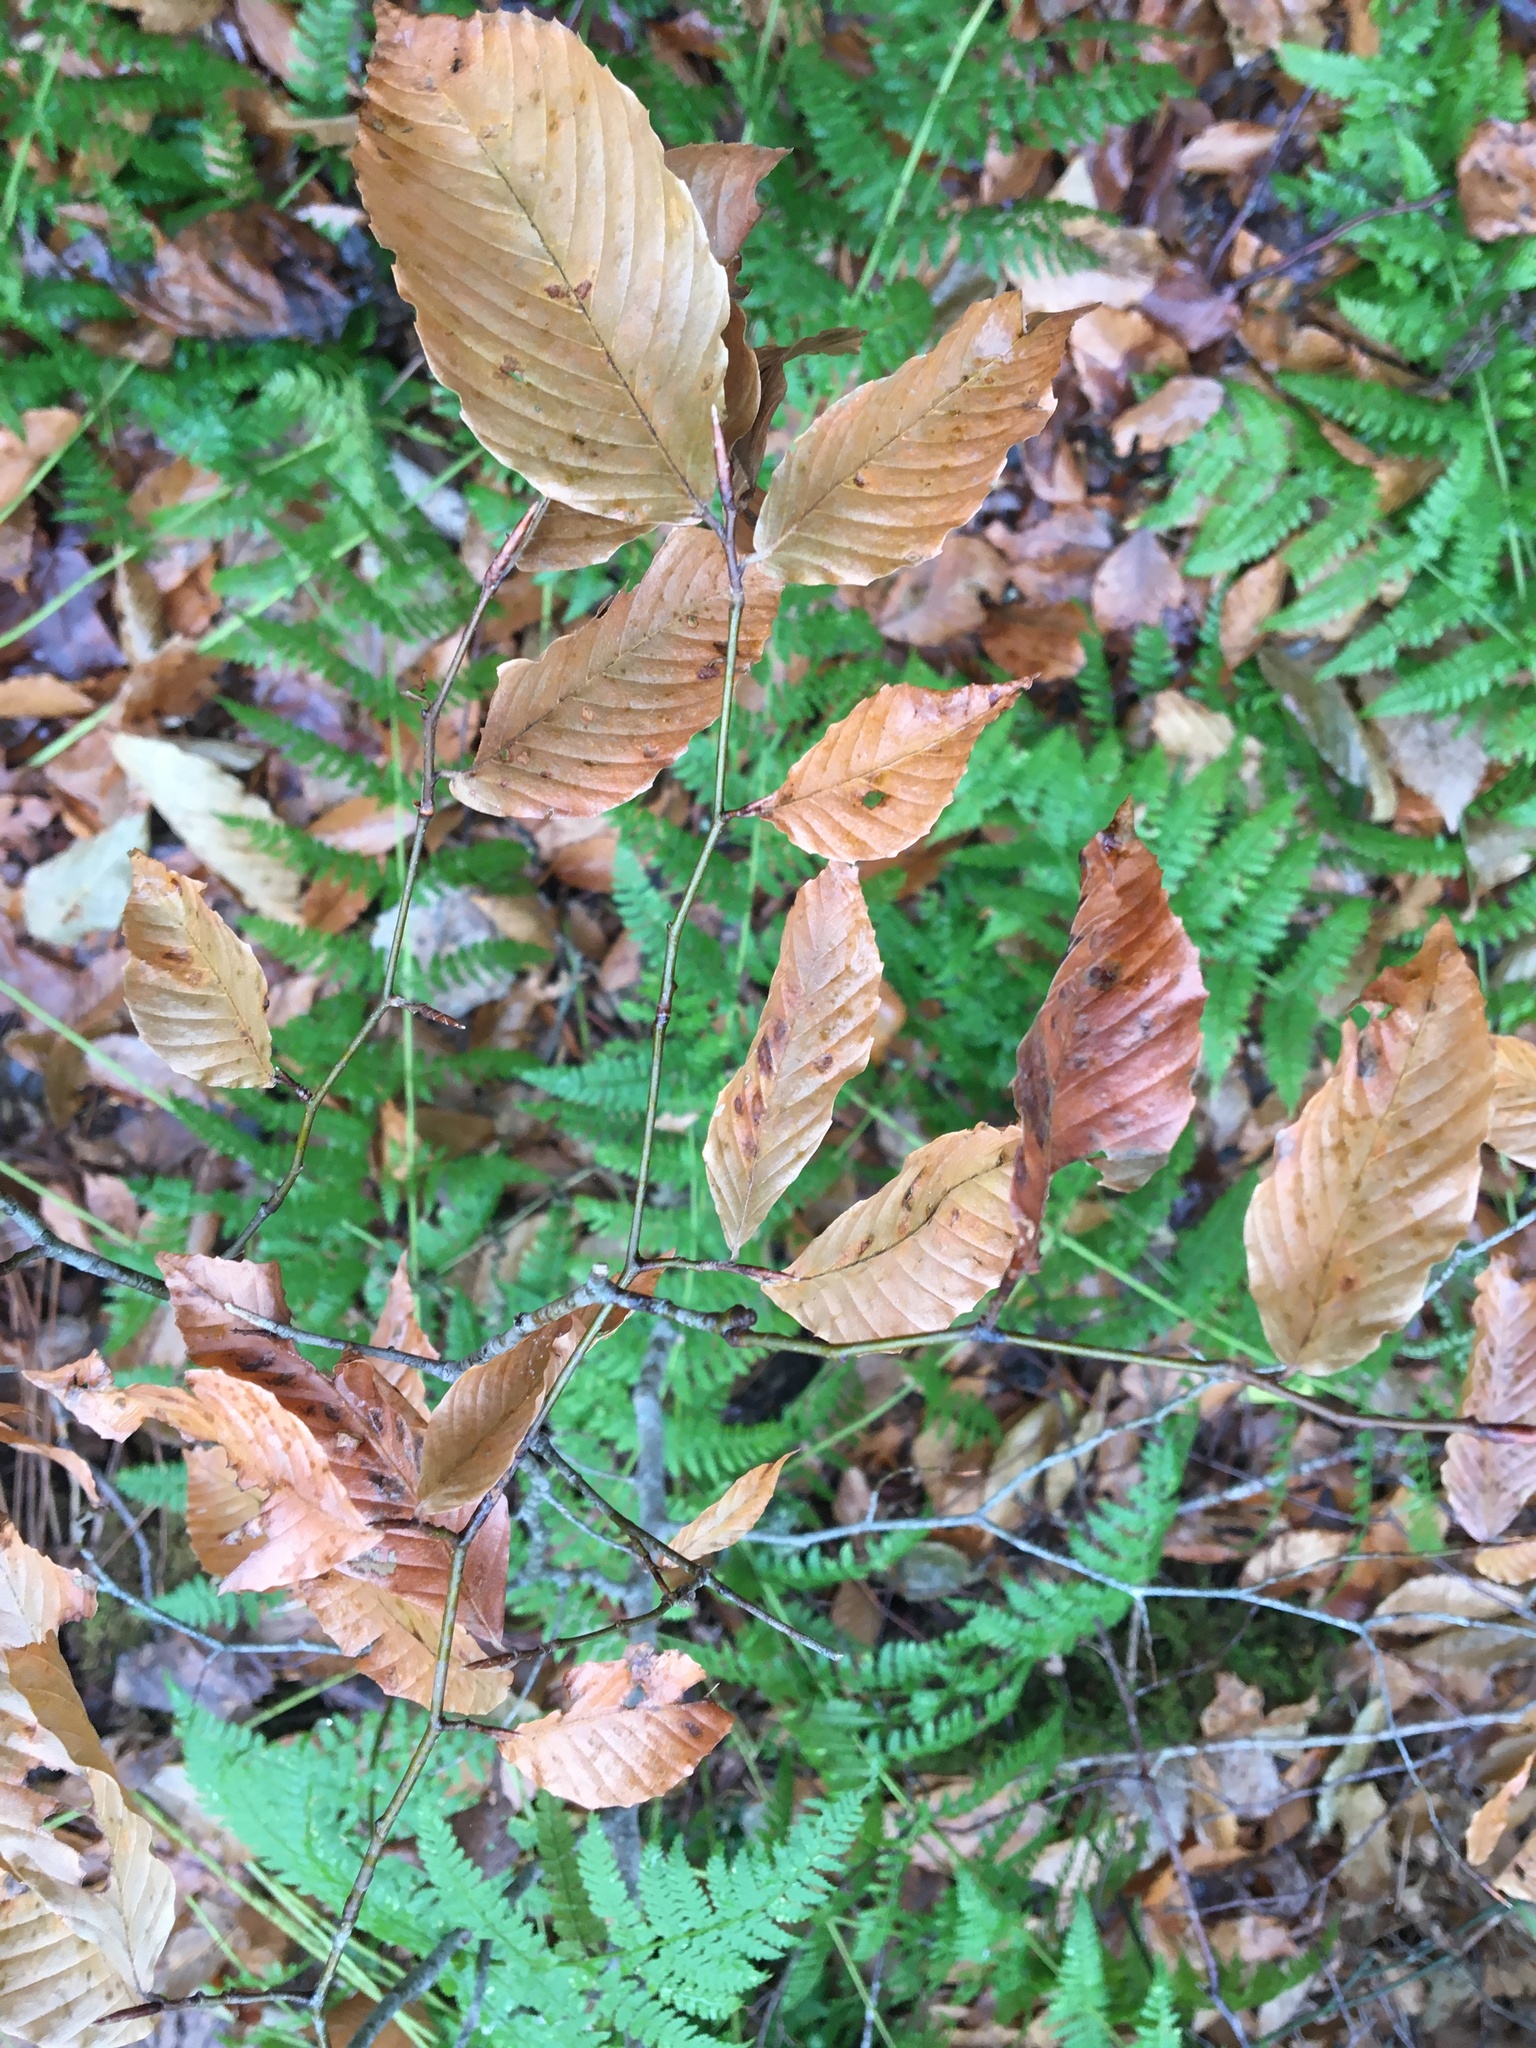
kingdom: Plantae
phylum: Tracheophyta
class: Magnoliopsida
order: Fagales
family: Fagaceae
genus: Fagus
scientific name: Fagus grandifolia
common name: American beech
